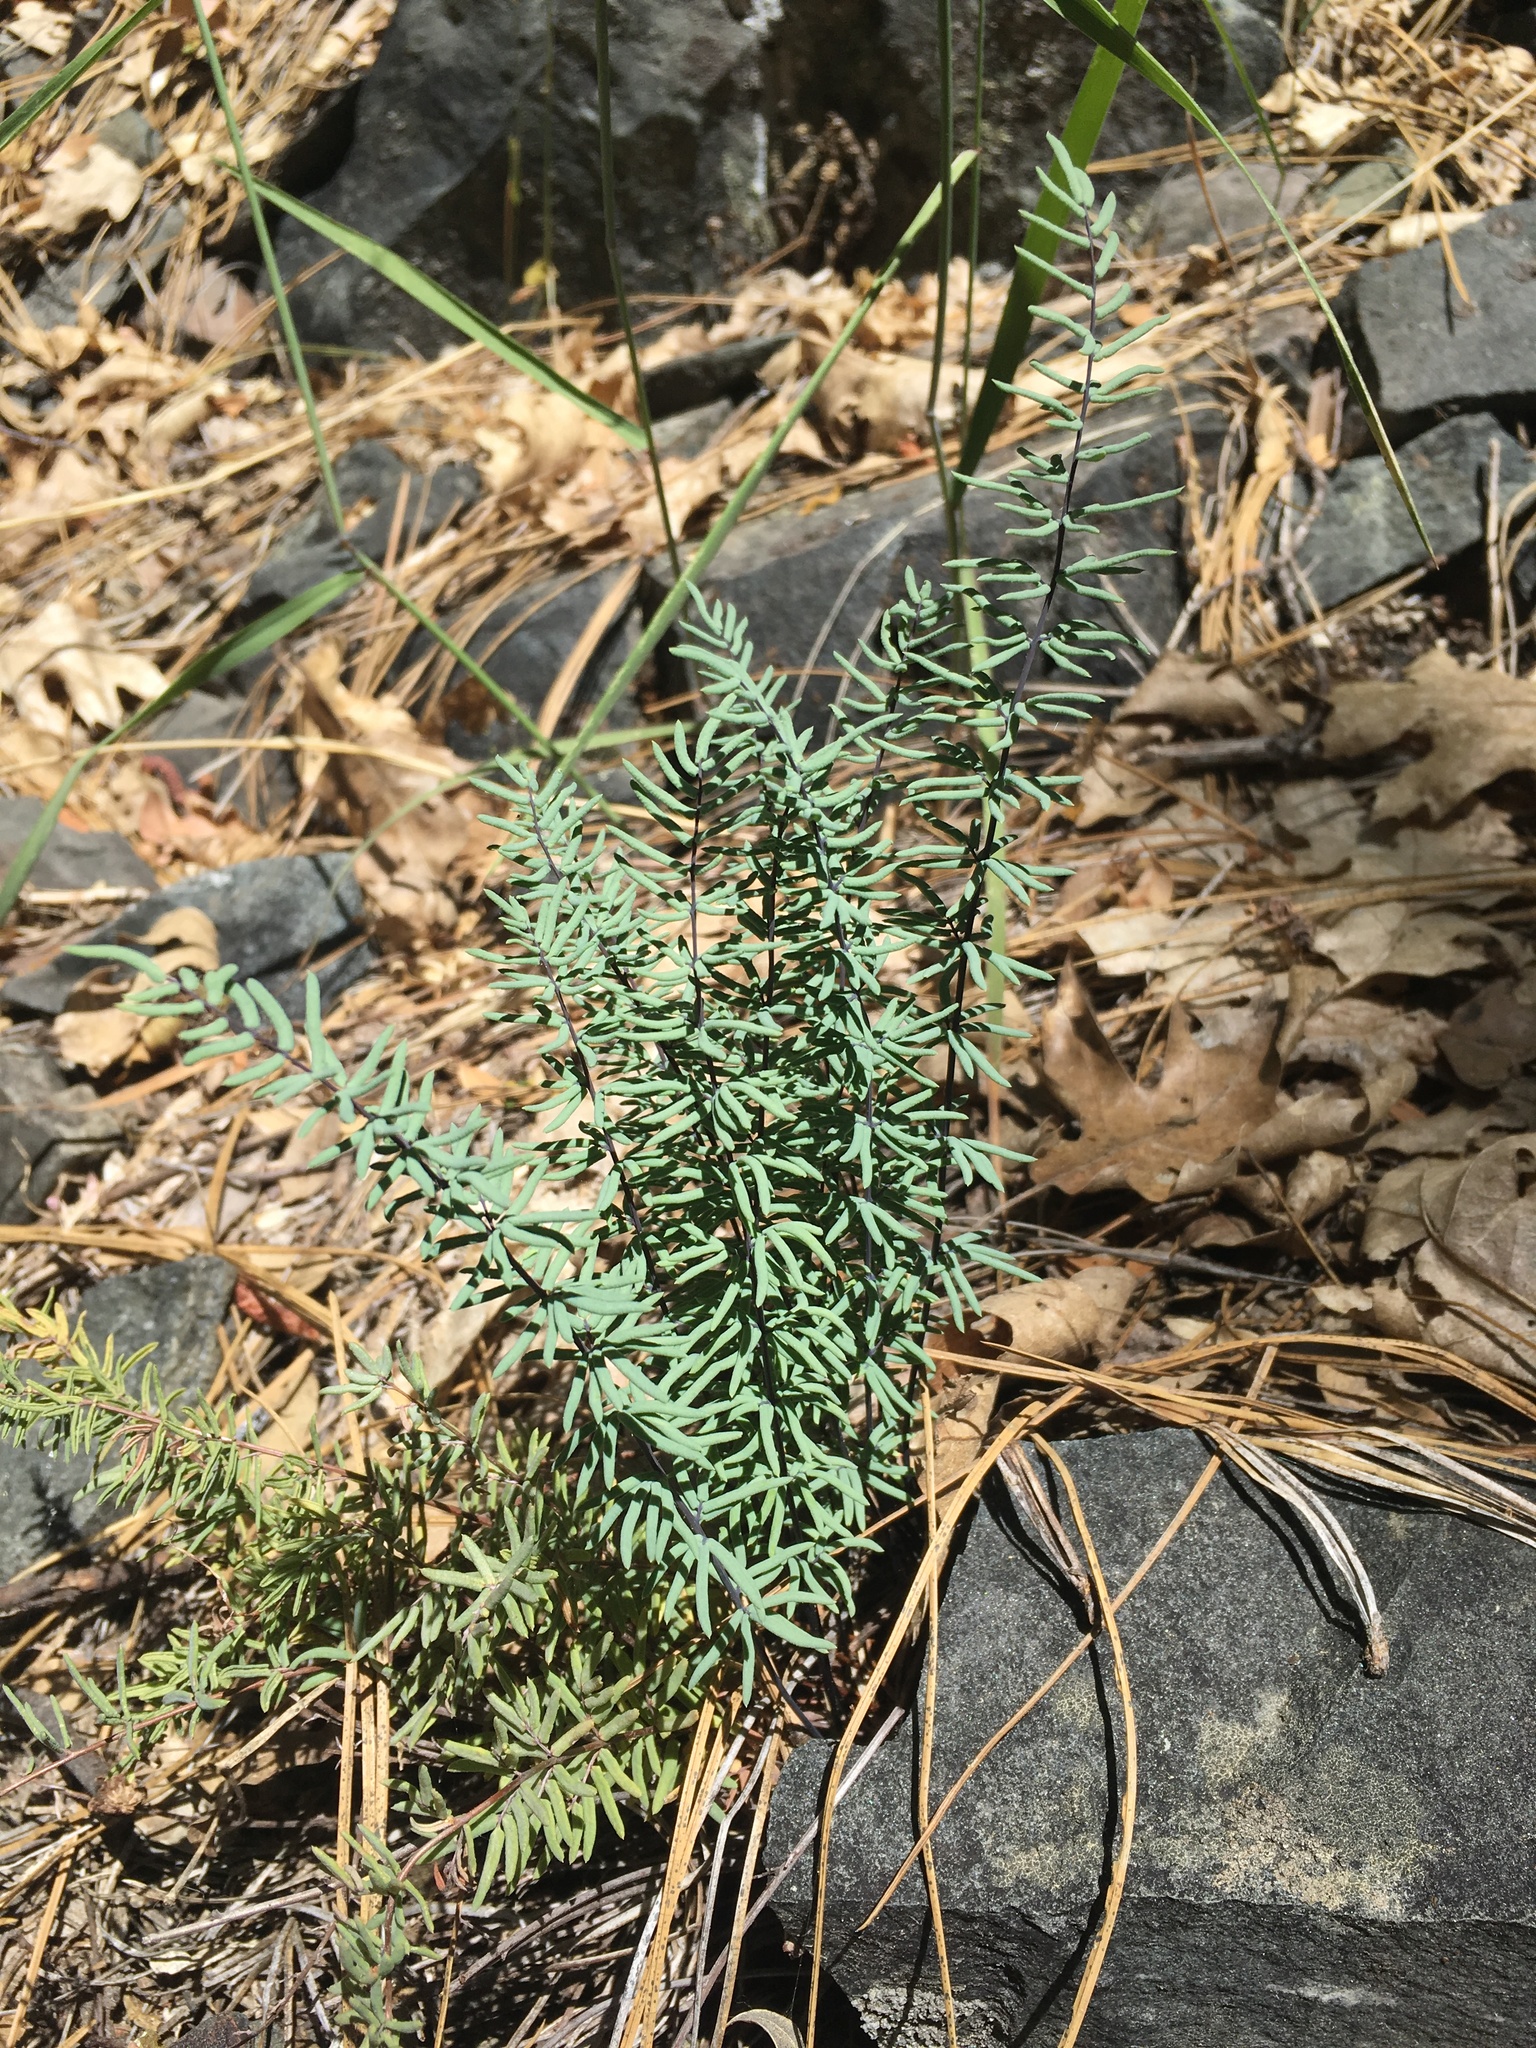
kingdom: Plantae
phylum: Tracheophyta
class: Polypodiopsida
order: Polypodiales
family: Pteridaceae
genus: Pellaea
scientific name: Pellaea brachyptera
